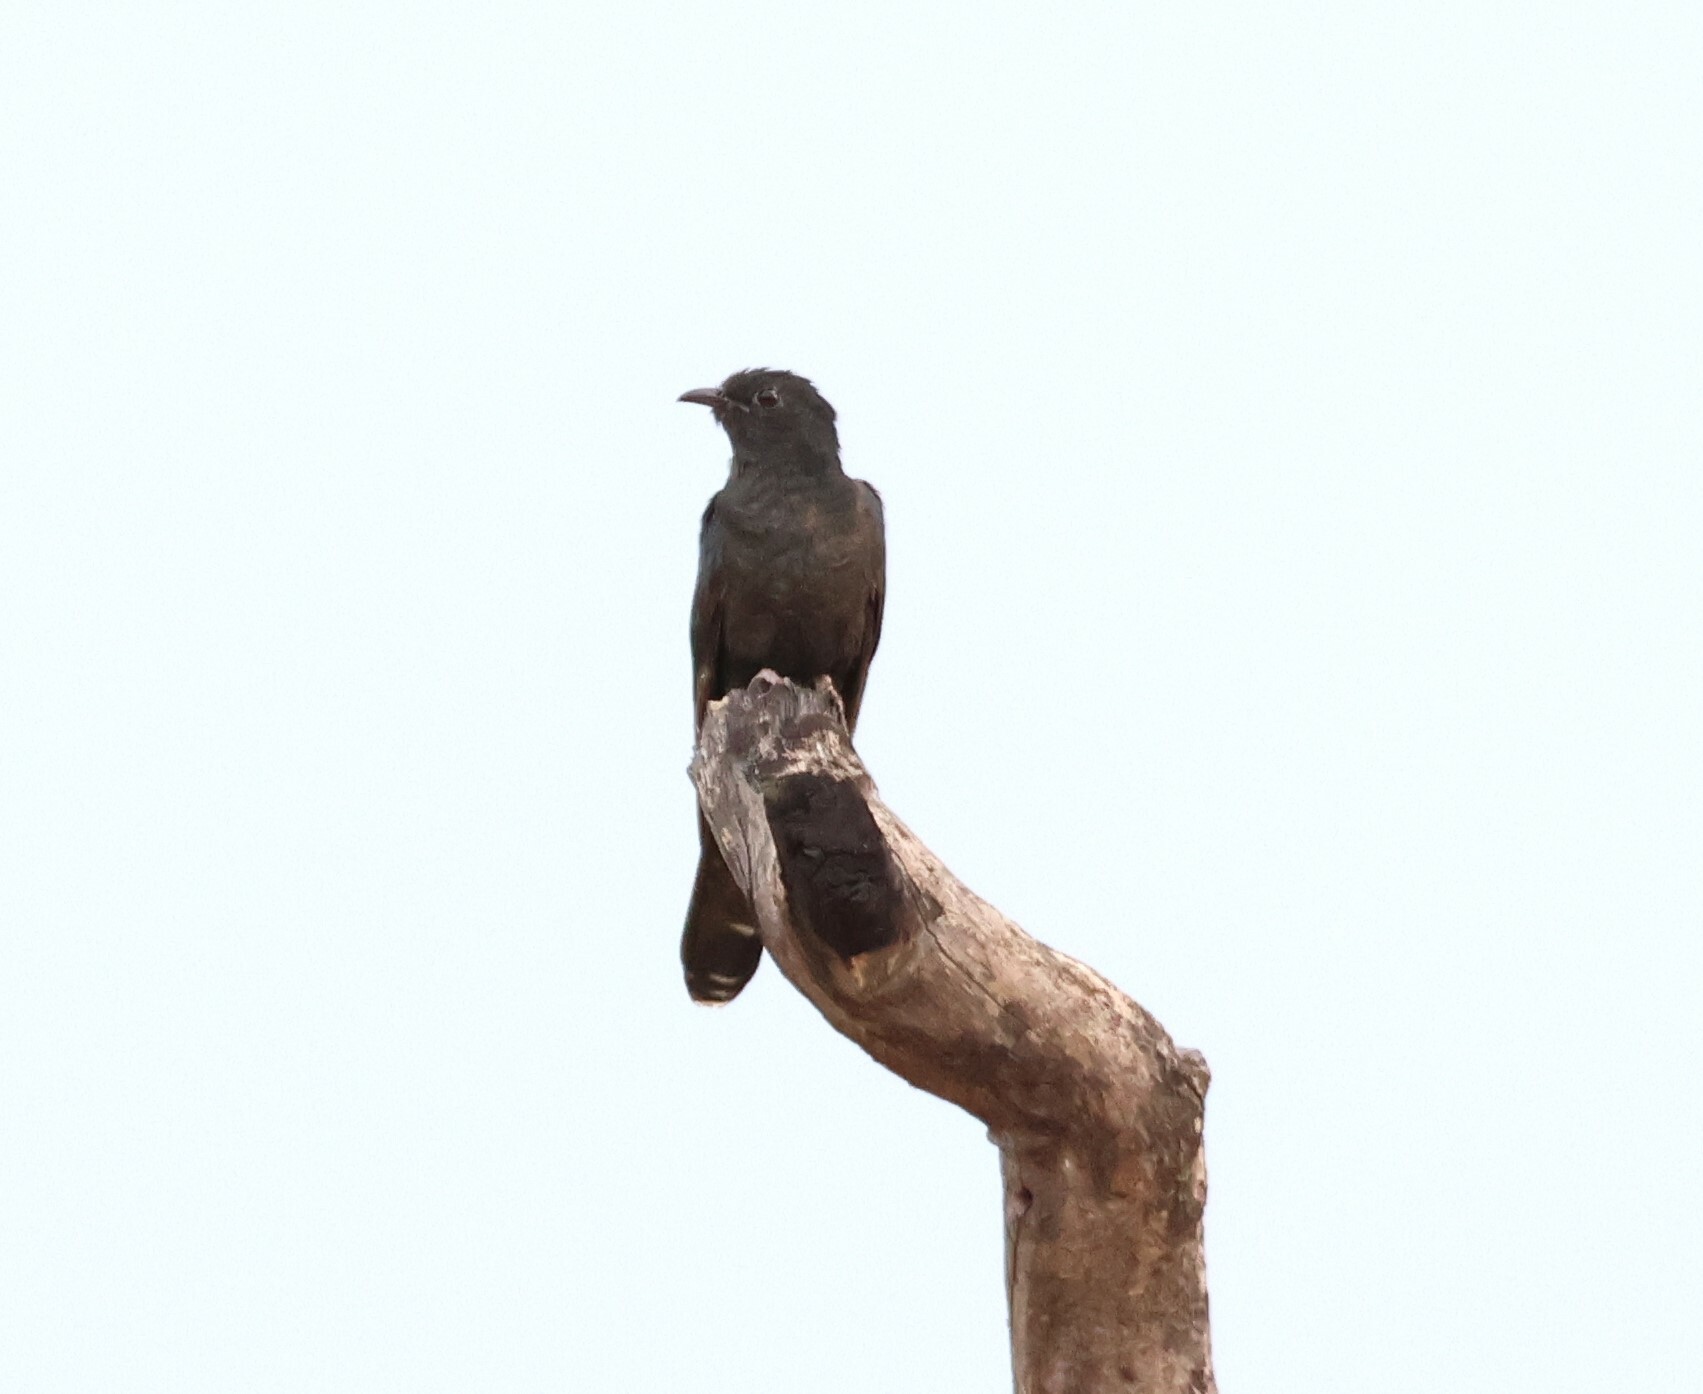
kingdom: Animalia
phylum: Chordata
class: Aves
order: Cuculiformes
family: Cuculidae
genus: Cuculus
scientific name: Cuculus clamosus
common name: Black cuckoo
